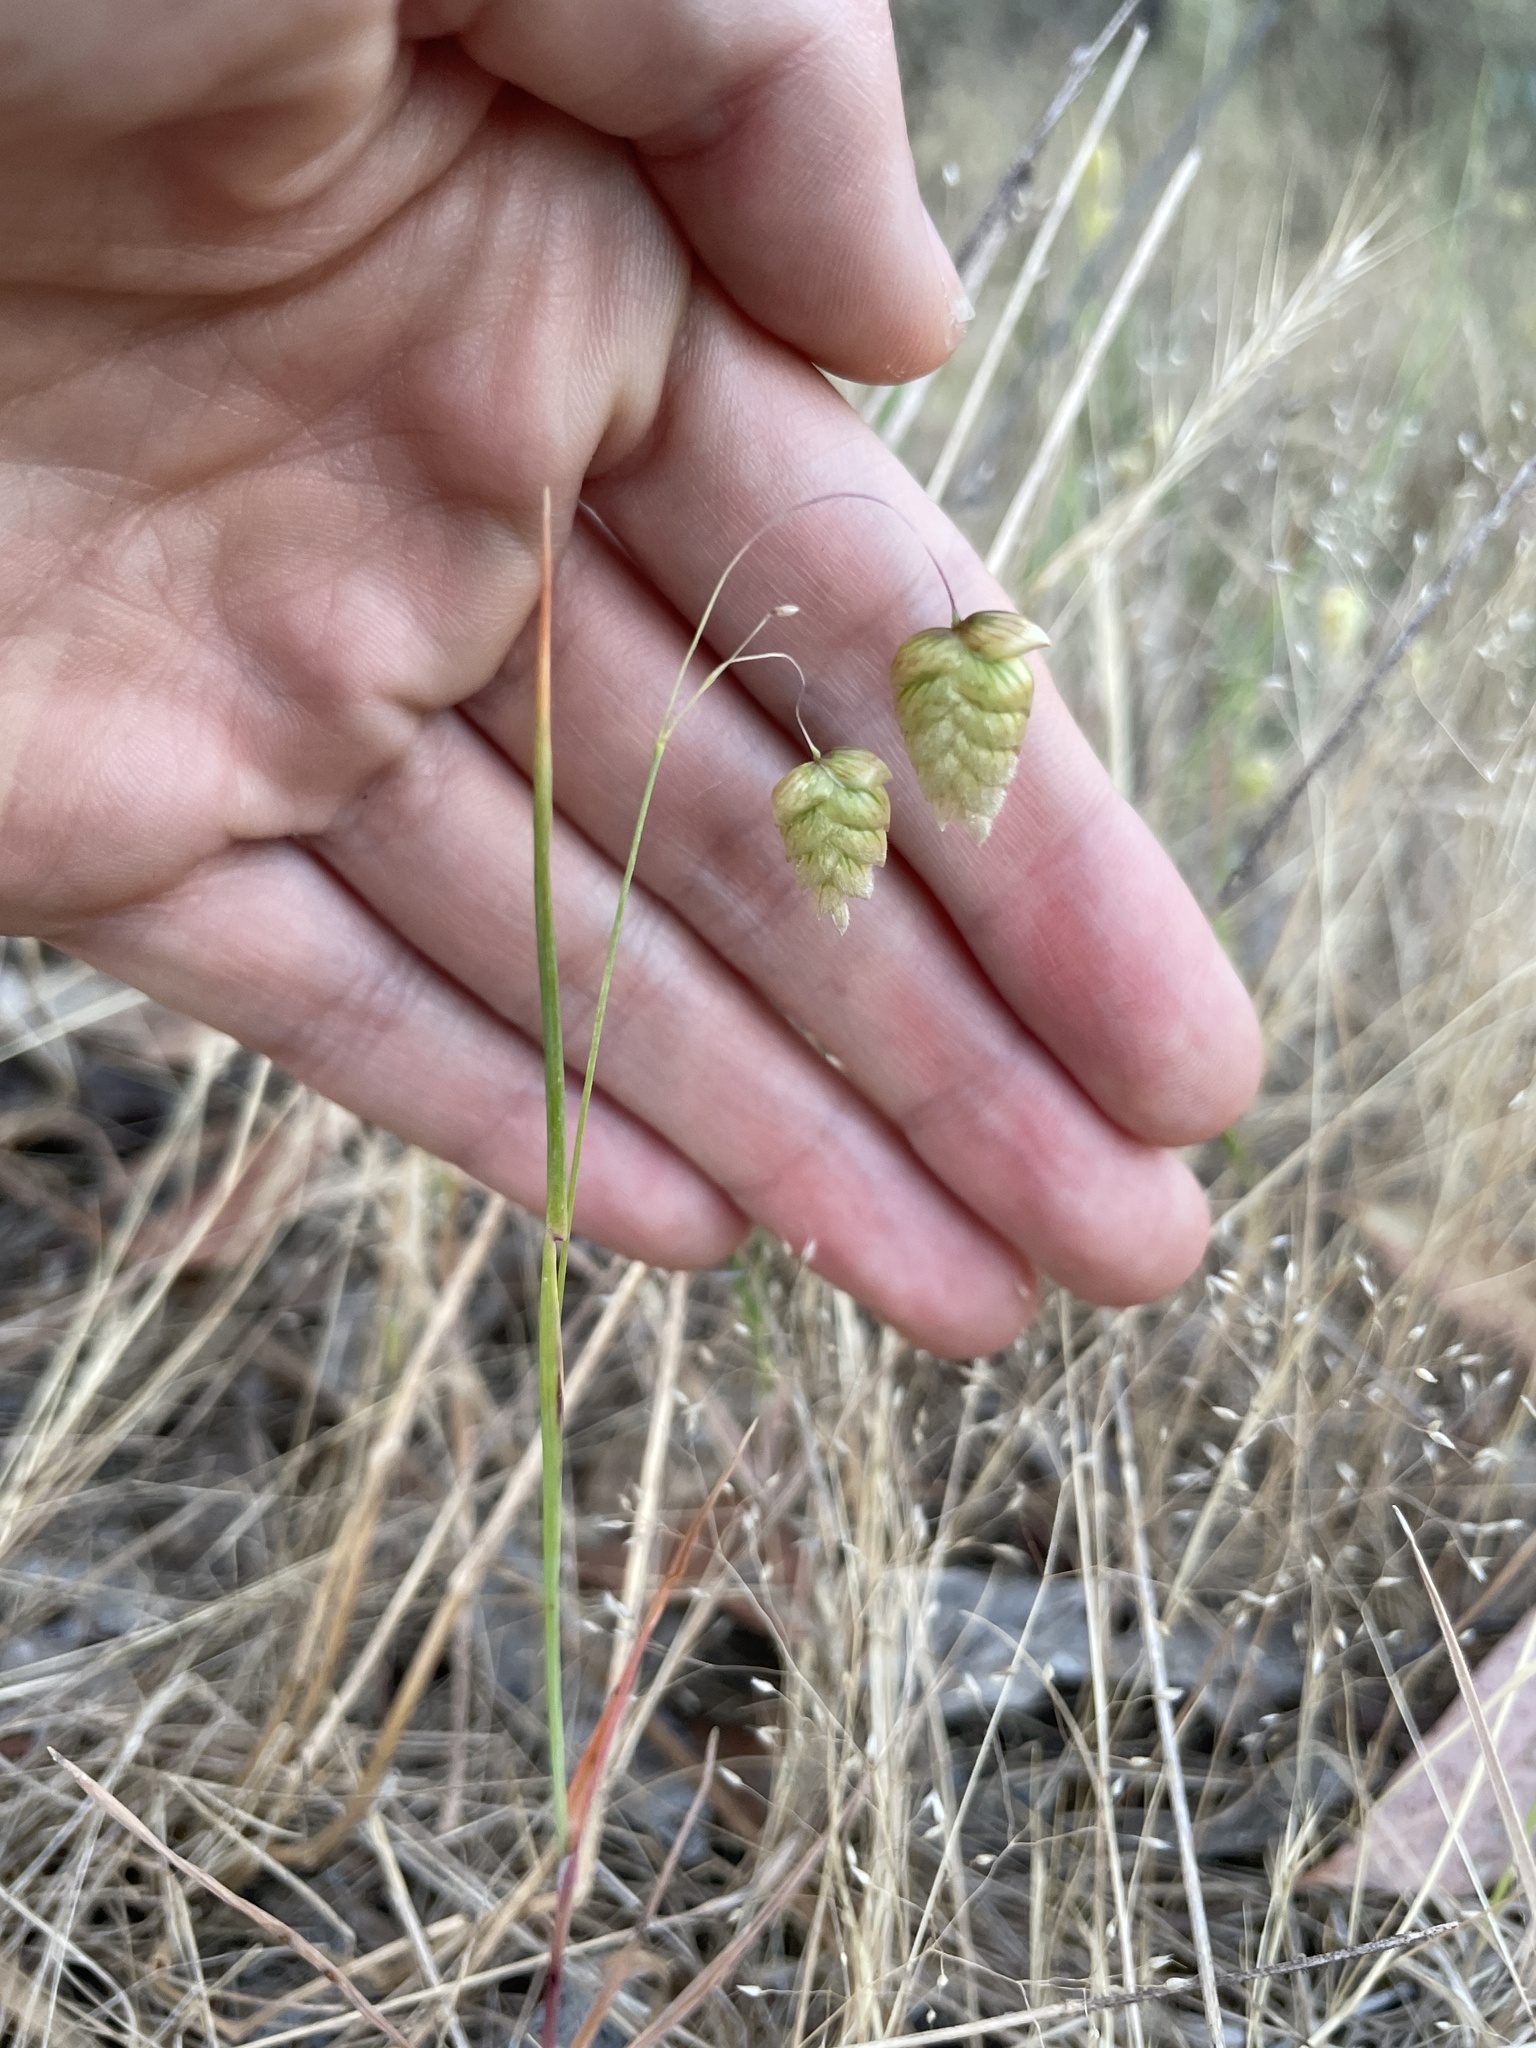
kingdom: Plantae
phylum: Tracheophyta
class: Liliopsida
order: Poales
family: Poaceae
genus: Briza
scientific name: Briza maxima
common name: Big quakinggrass
